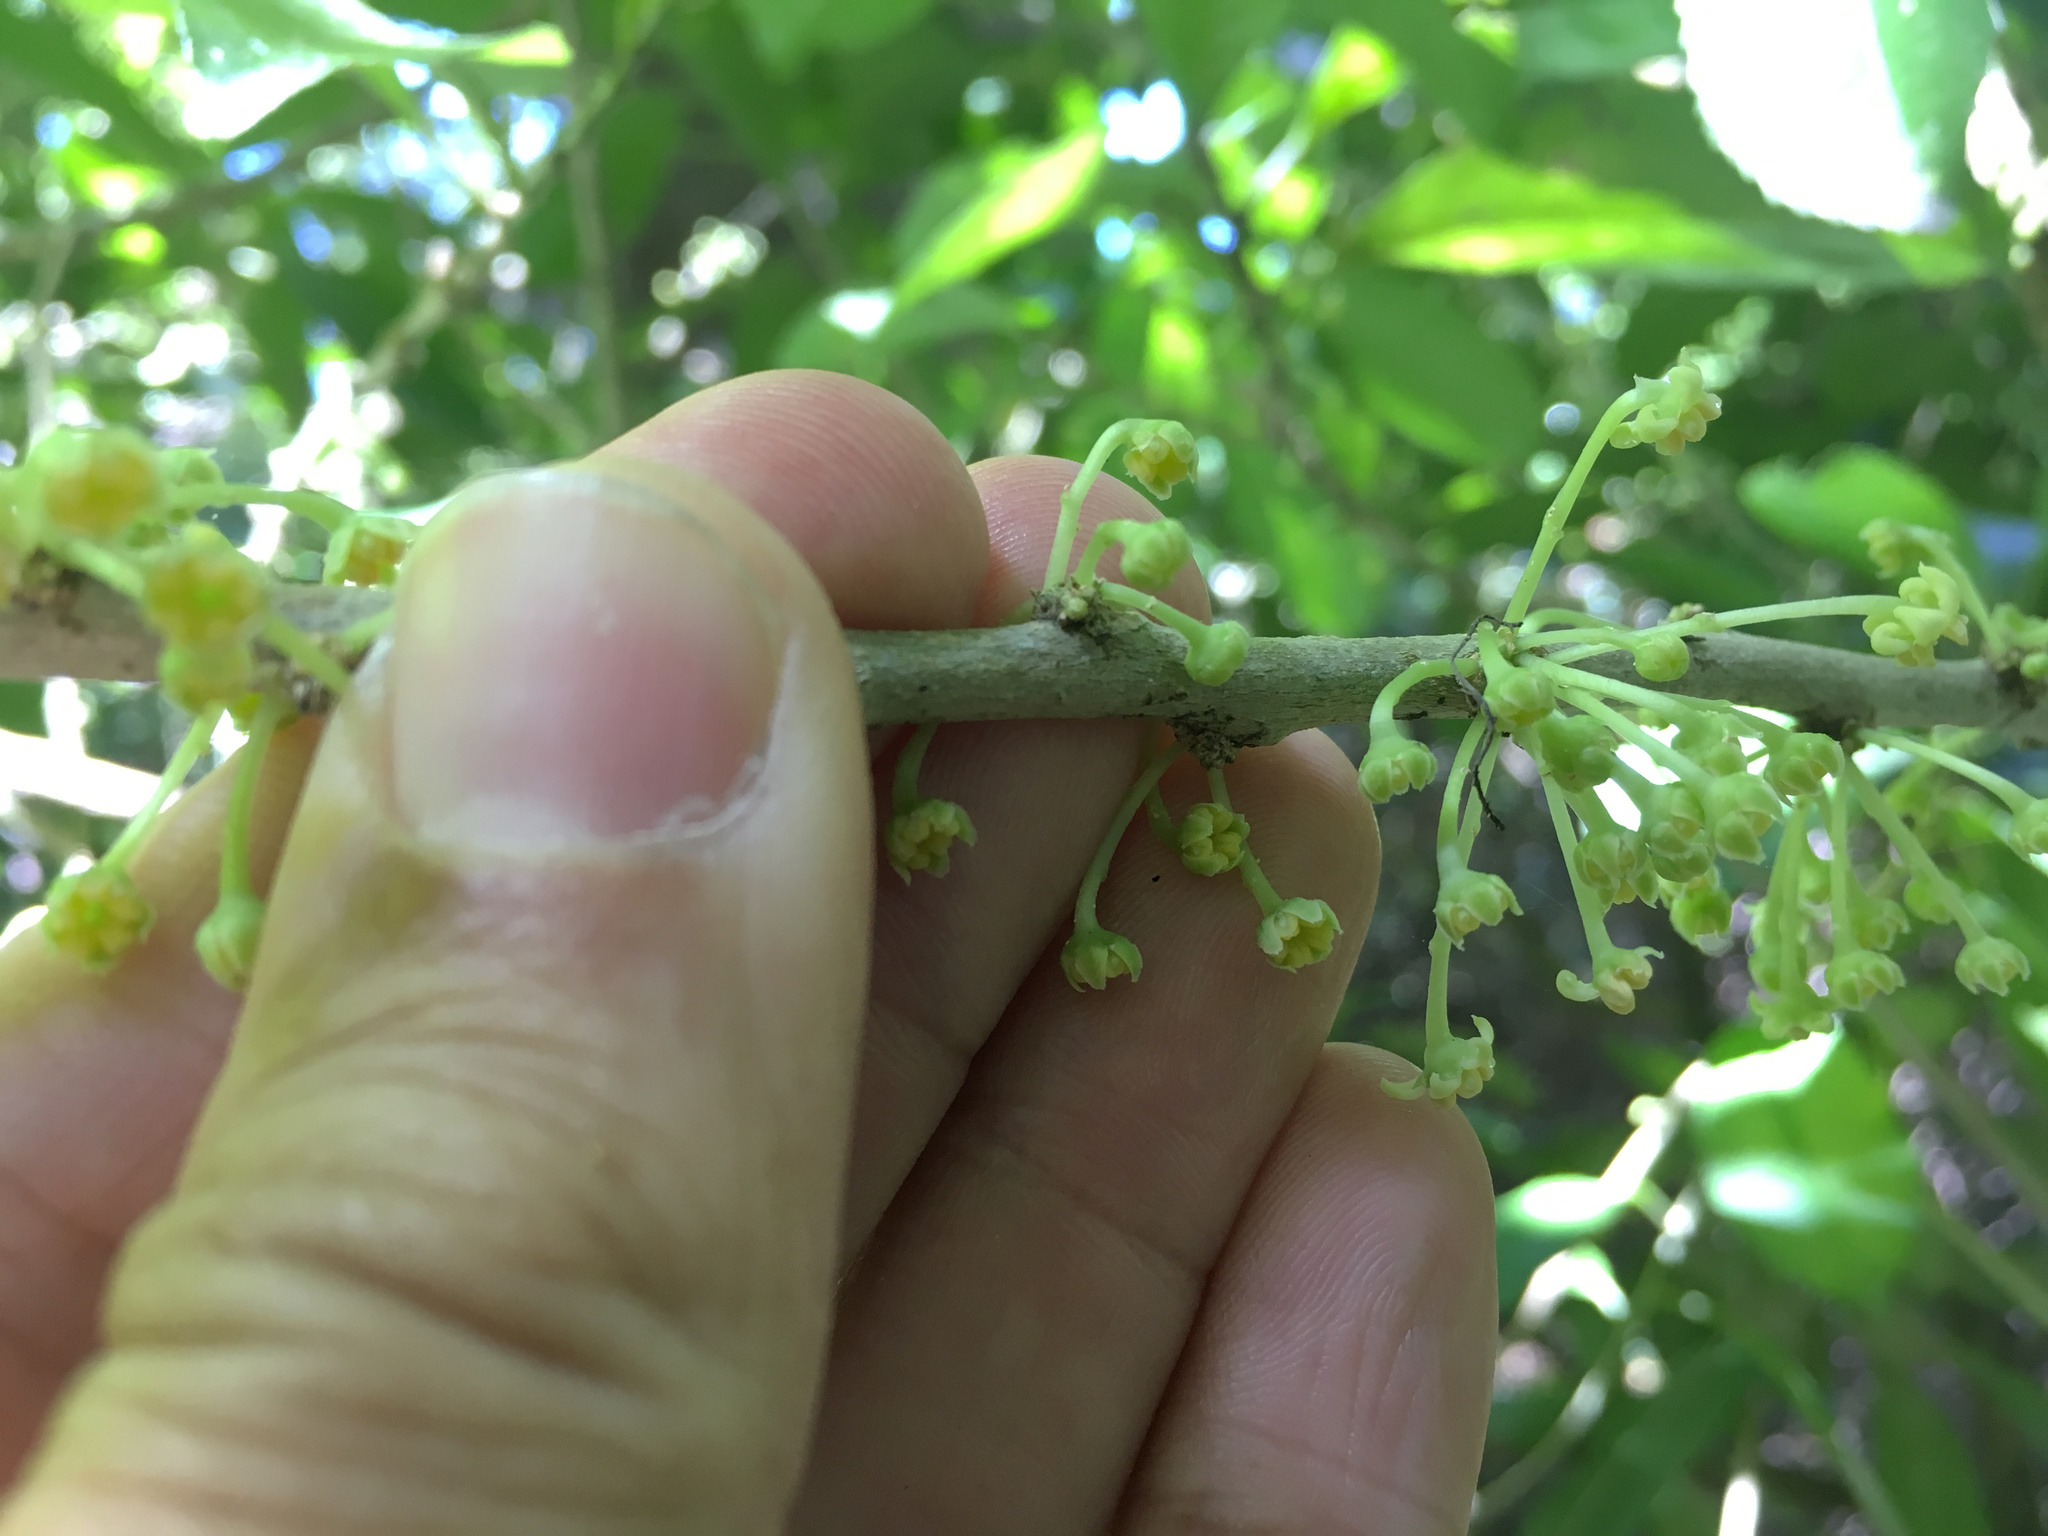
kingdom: Plantae
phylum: Tracheophyta
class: Magnoliopsida
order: Malpighiales
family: Violaceae
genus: Melicytus
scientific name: Melicytus ramiflorus
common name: Mahoe
